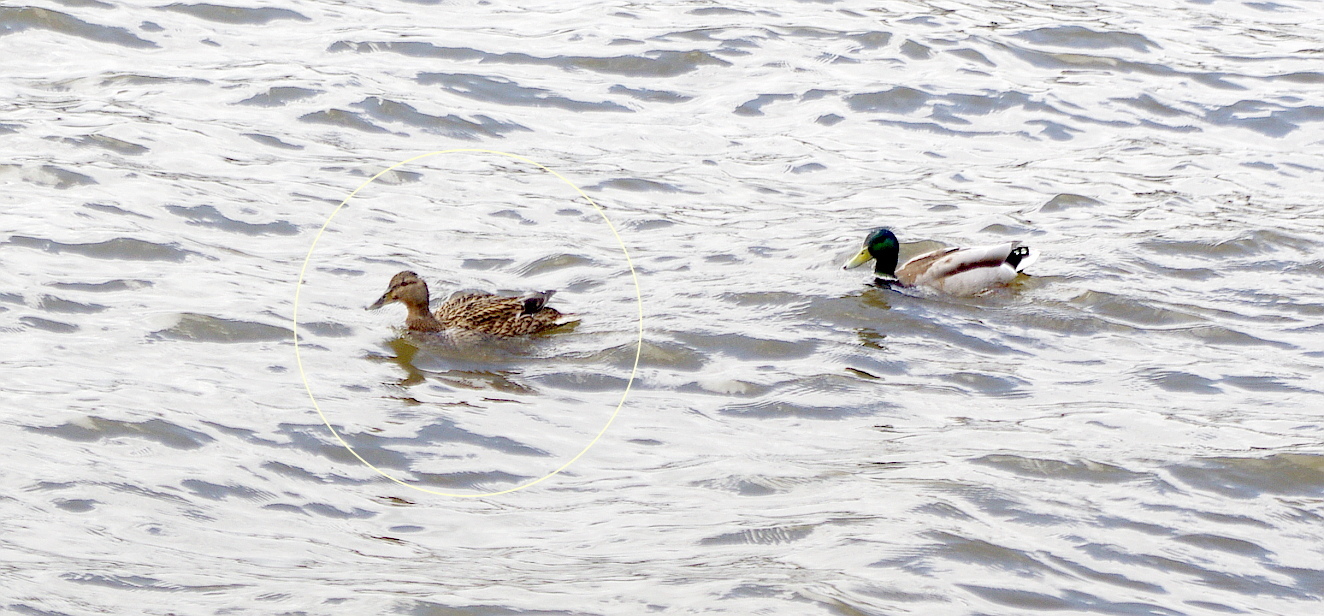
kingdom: Animalia
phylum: Chordata
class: Aves
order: Anseriformes
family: Anatidae
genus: Anas
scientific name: Anas platyrhynchos
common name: Mallard
